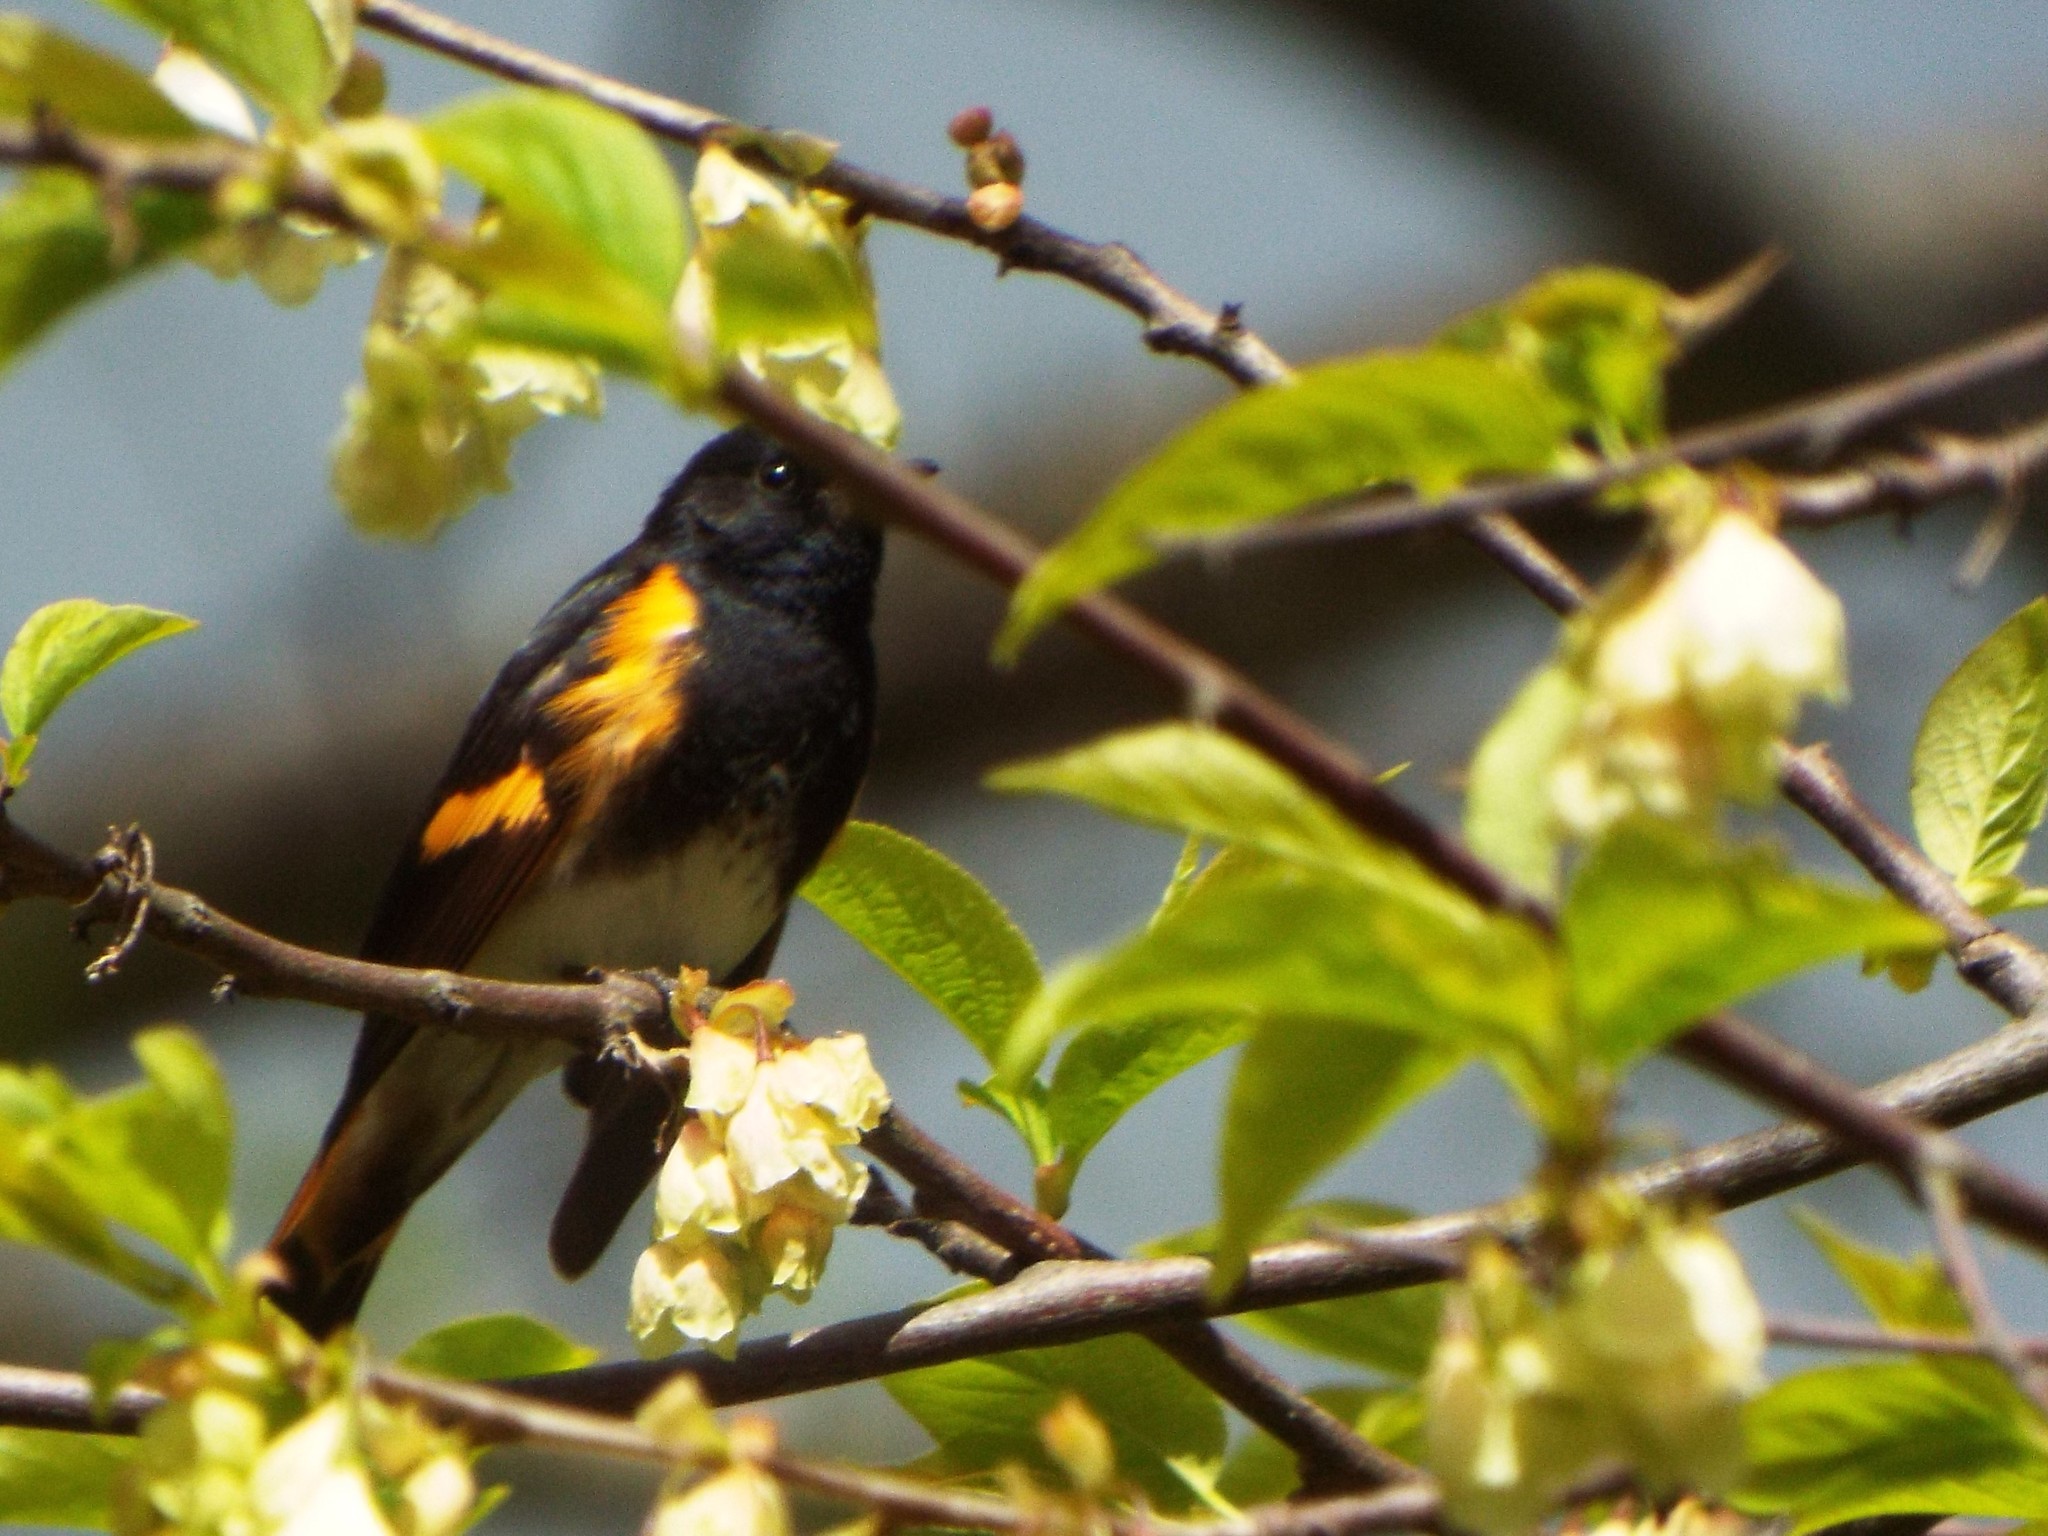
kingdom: Animalia
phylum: Chordata
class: Aves
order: Passeriformes
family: Parulidae
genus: Setophaga
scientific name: Setophaga ruticilla
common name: American redstart
